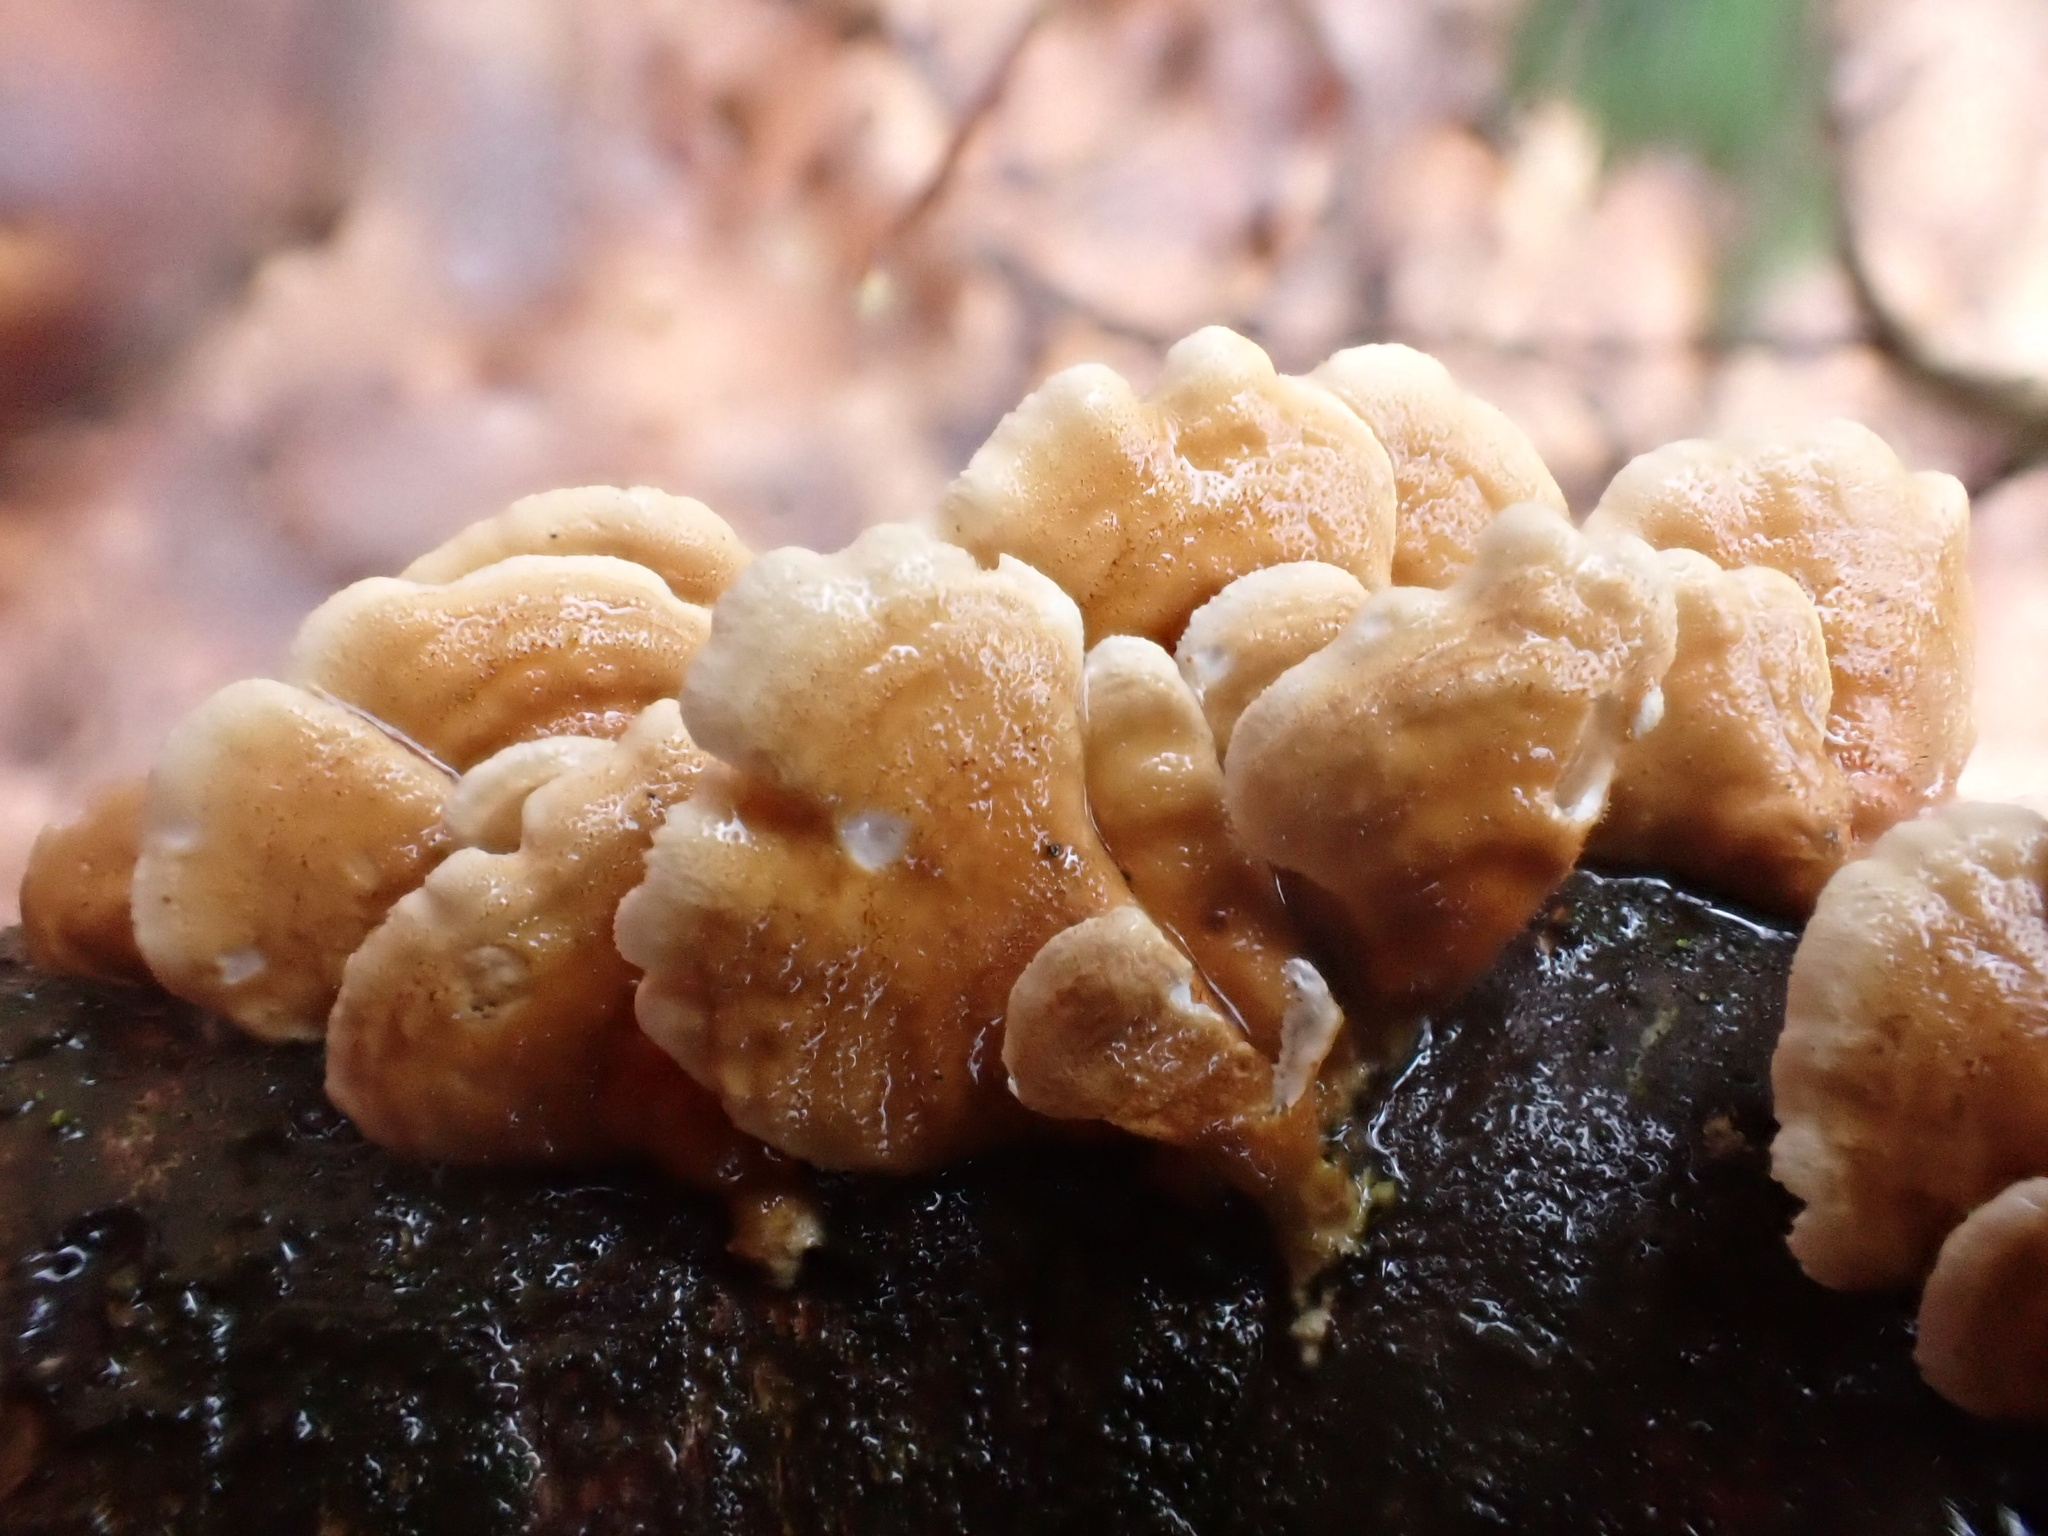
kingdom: Fungi
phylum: Basidiomycota
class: Agaricomycetes
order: Amylocorticiales
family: Amylocorticiaceae
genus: Plicaturopsis
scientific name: Plicaturopsis crispa
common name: Crimped gill
